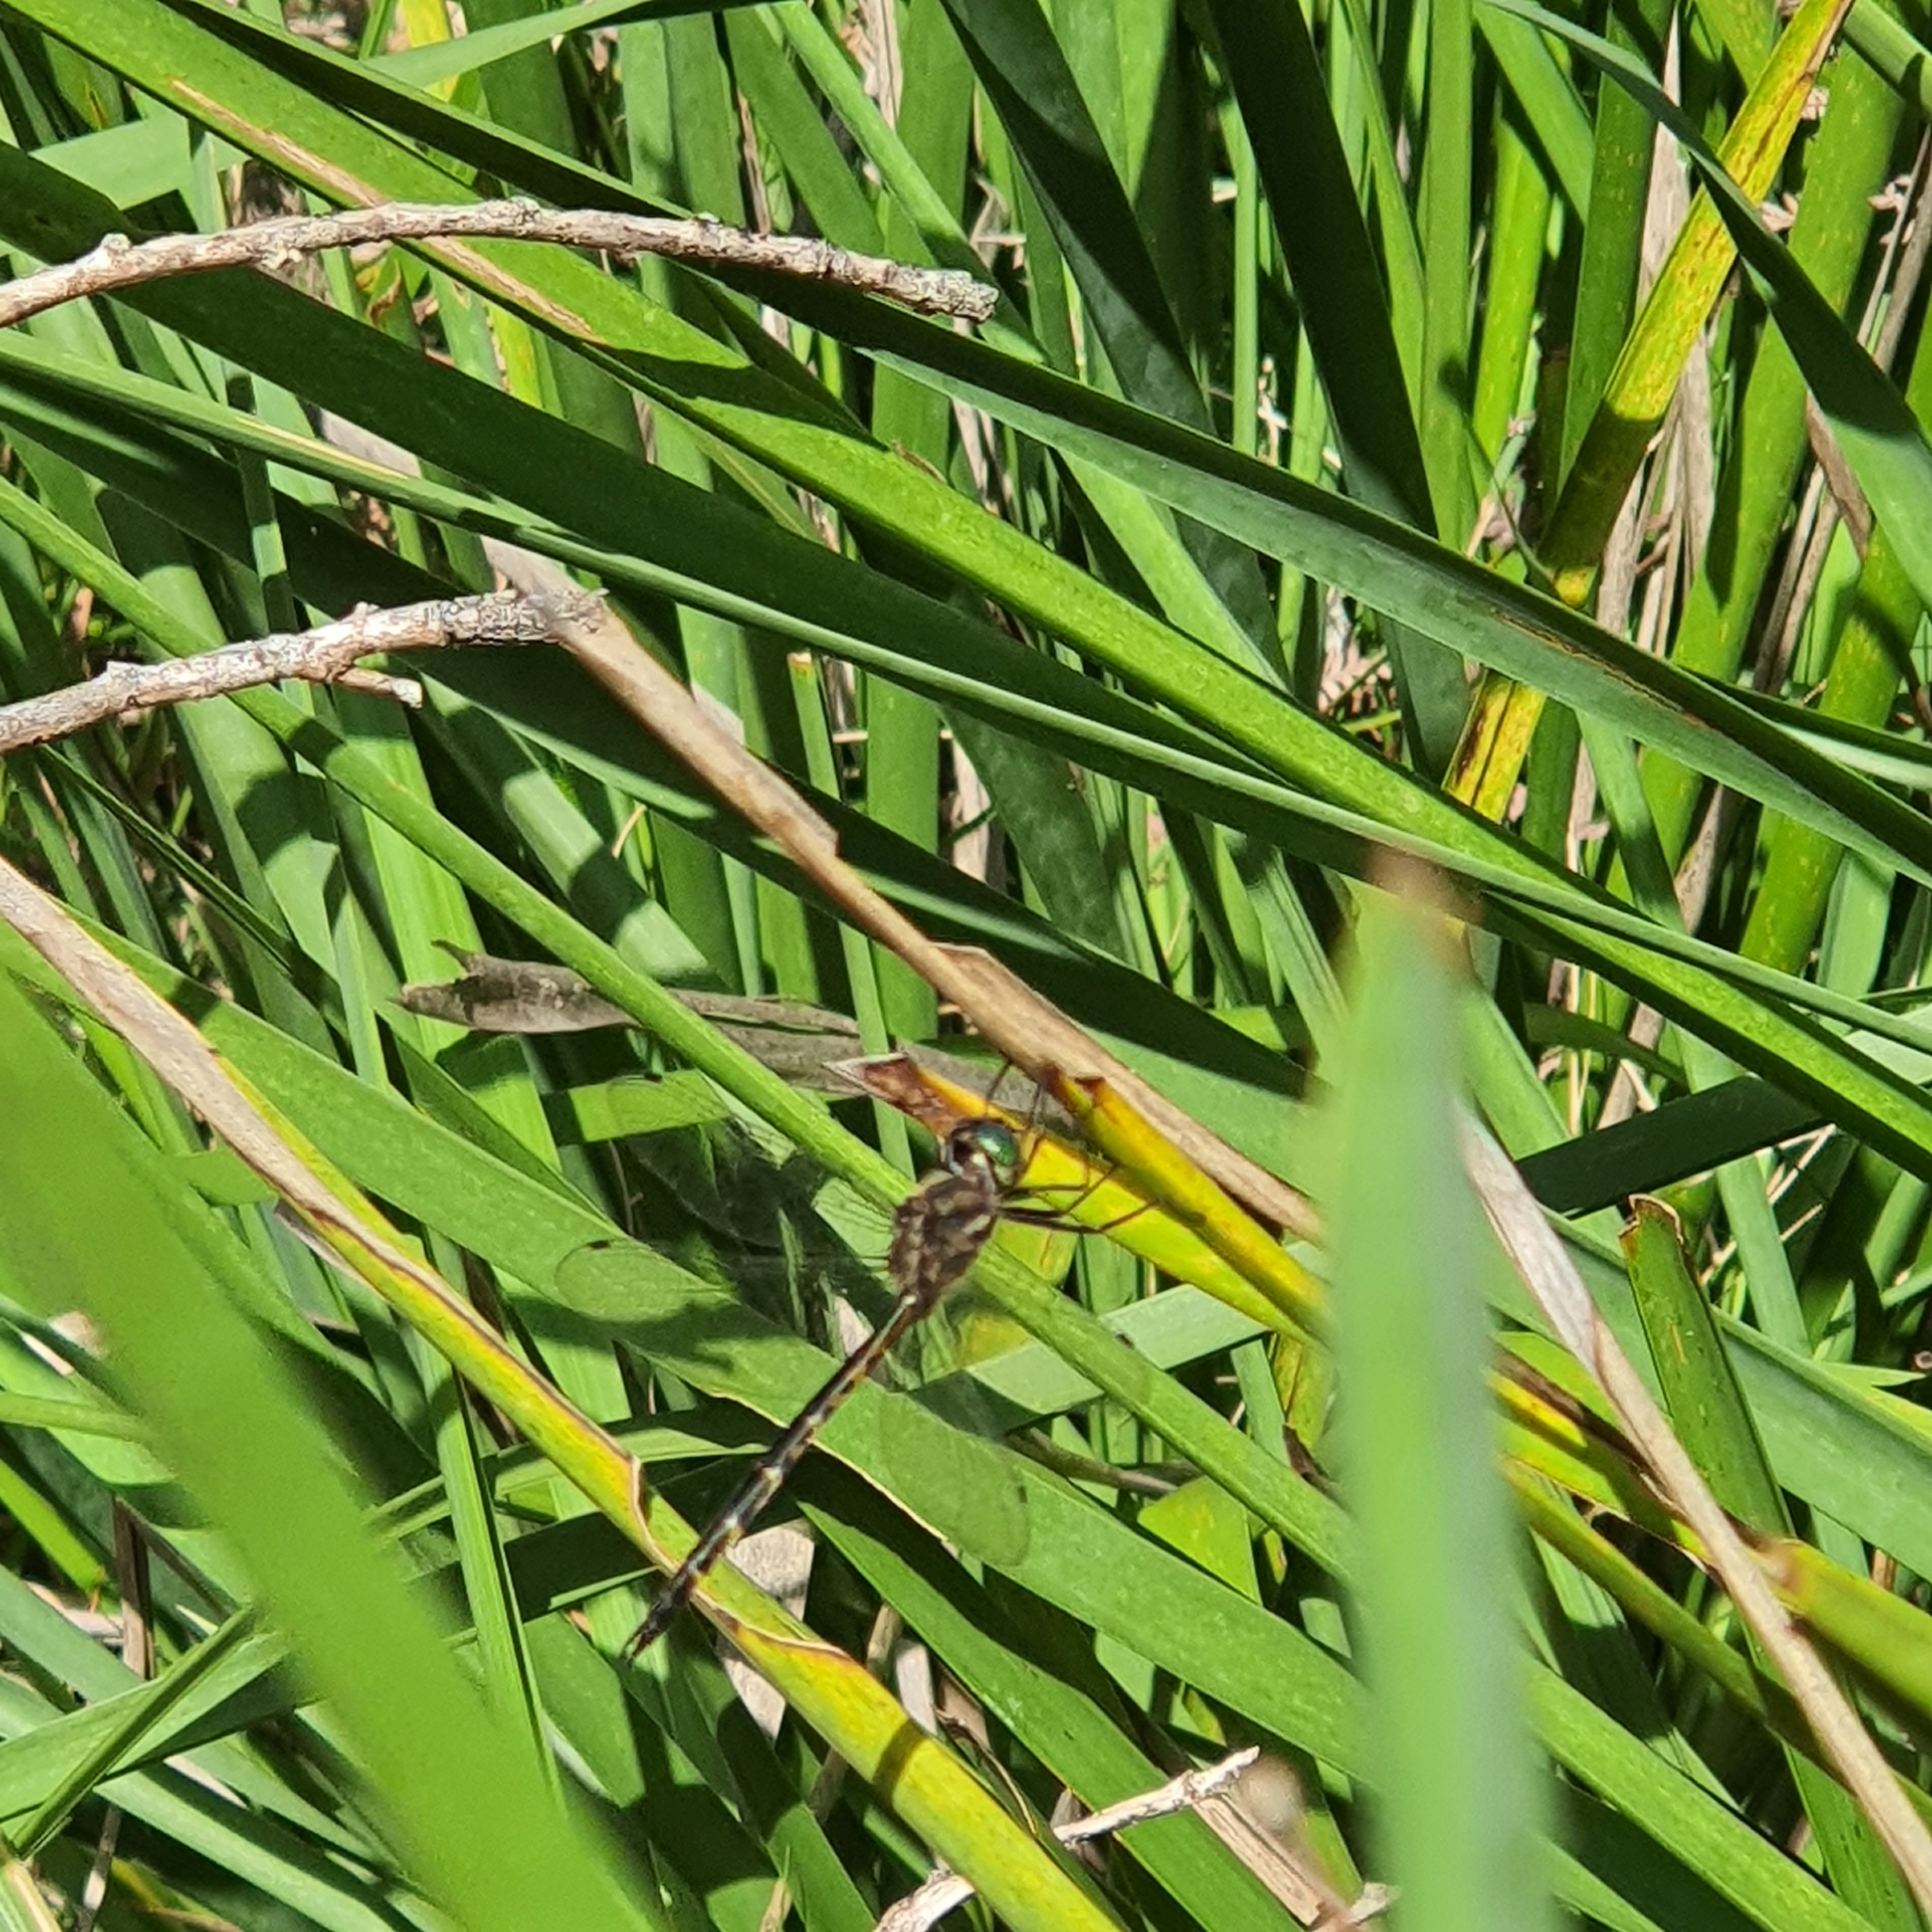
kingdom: Animalia
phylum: Arthropoda
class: Insecta
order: Odonata
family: Corduliidae
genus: Hemicordulia
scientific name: Hemicordulia australiae
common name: Sentry dragonfly
